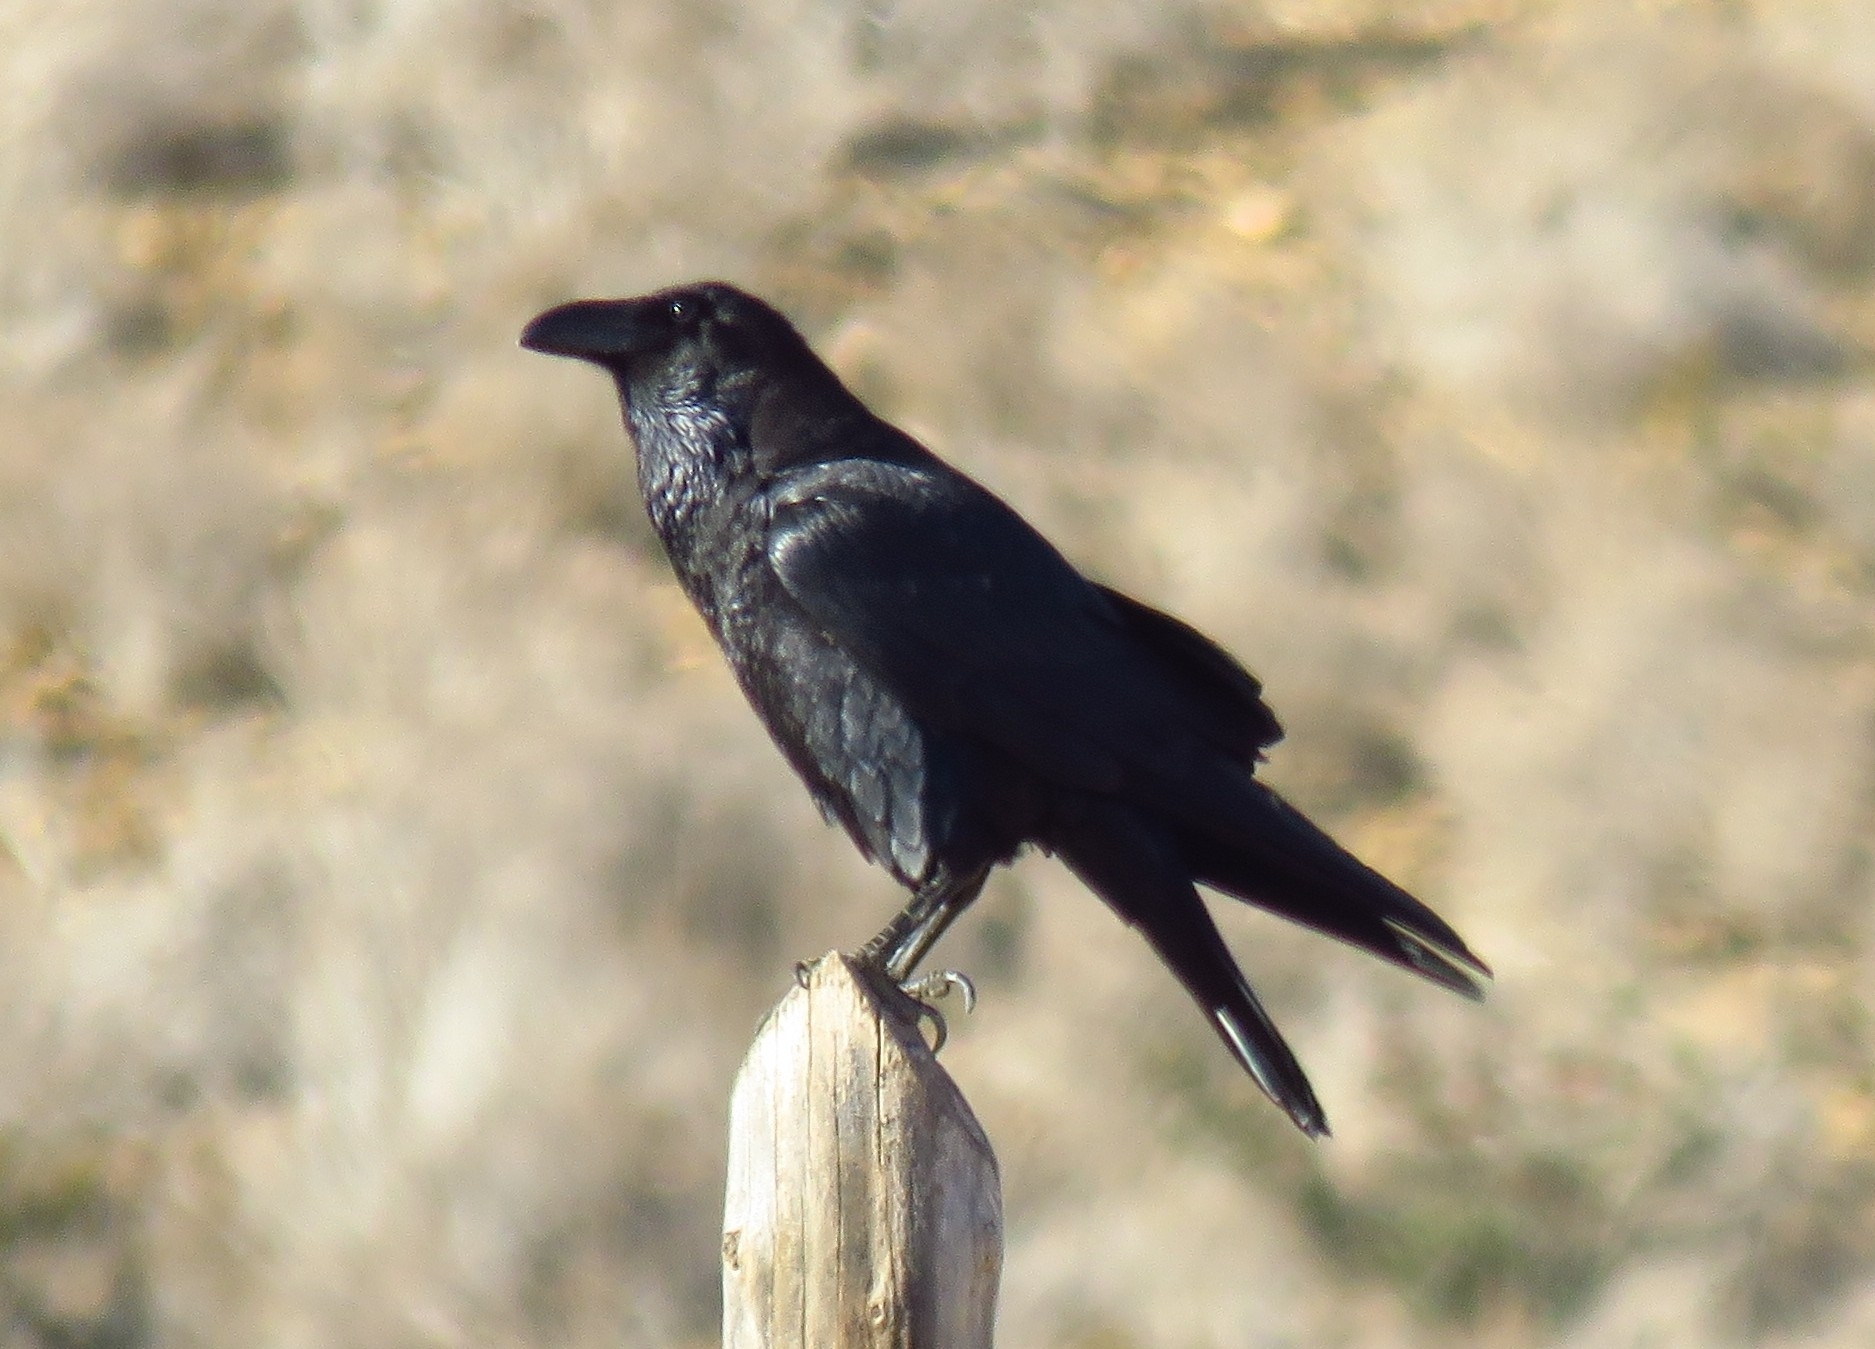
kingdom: Animalia
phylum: Chordata
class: Aves
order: Passeriformes
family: Corvidae
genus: Corvus
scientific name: Corvus corax
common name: Common raven
